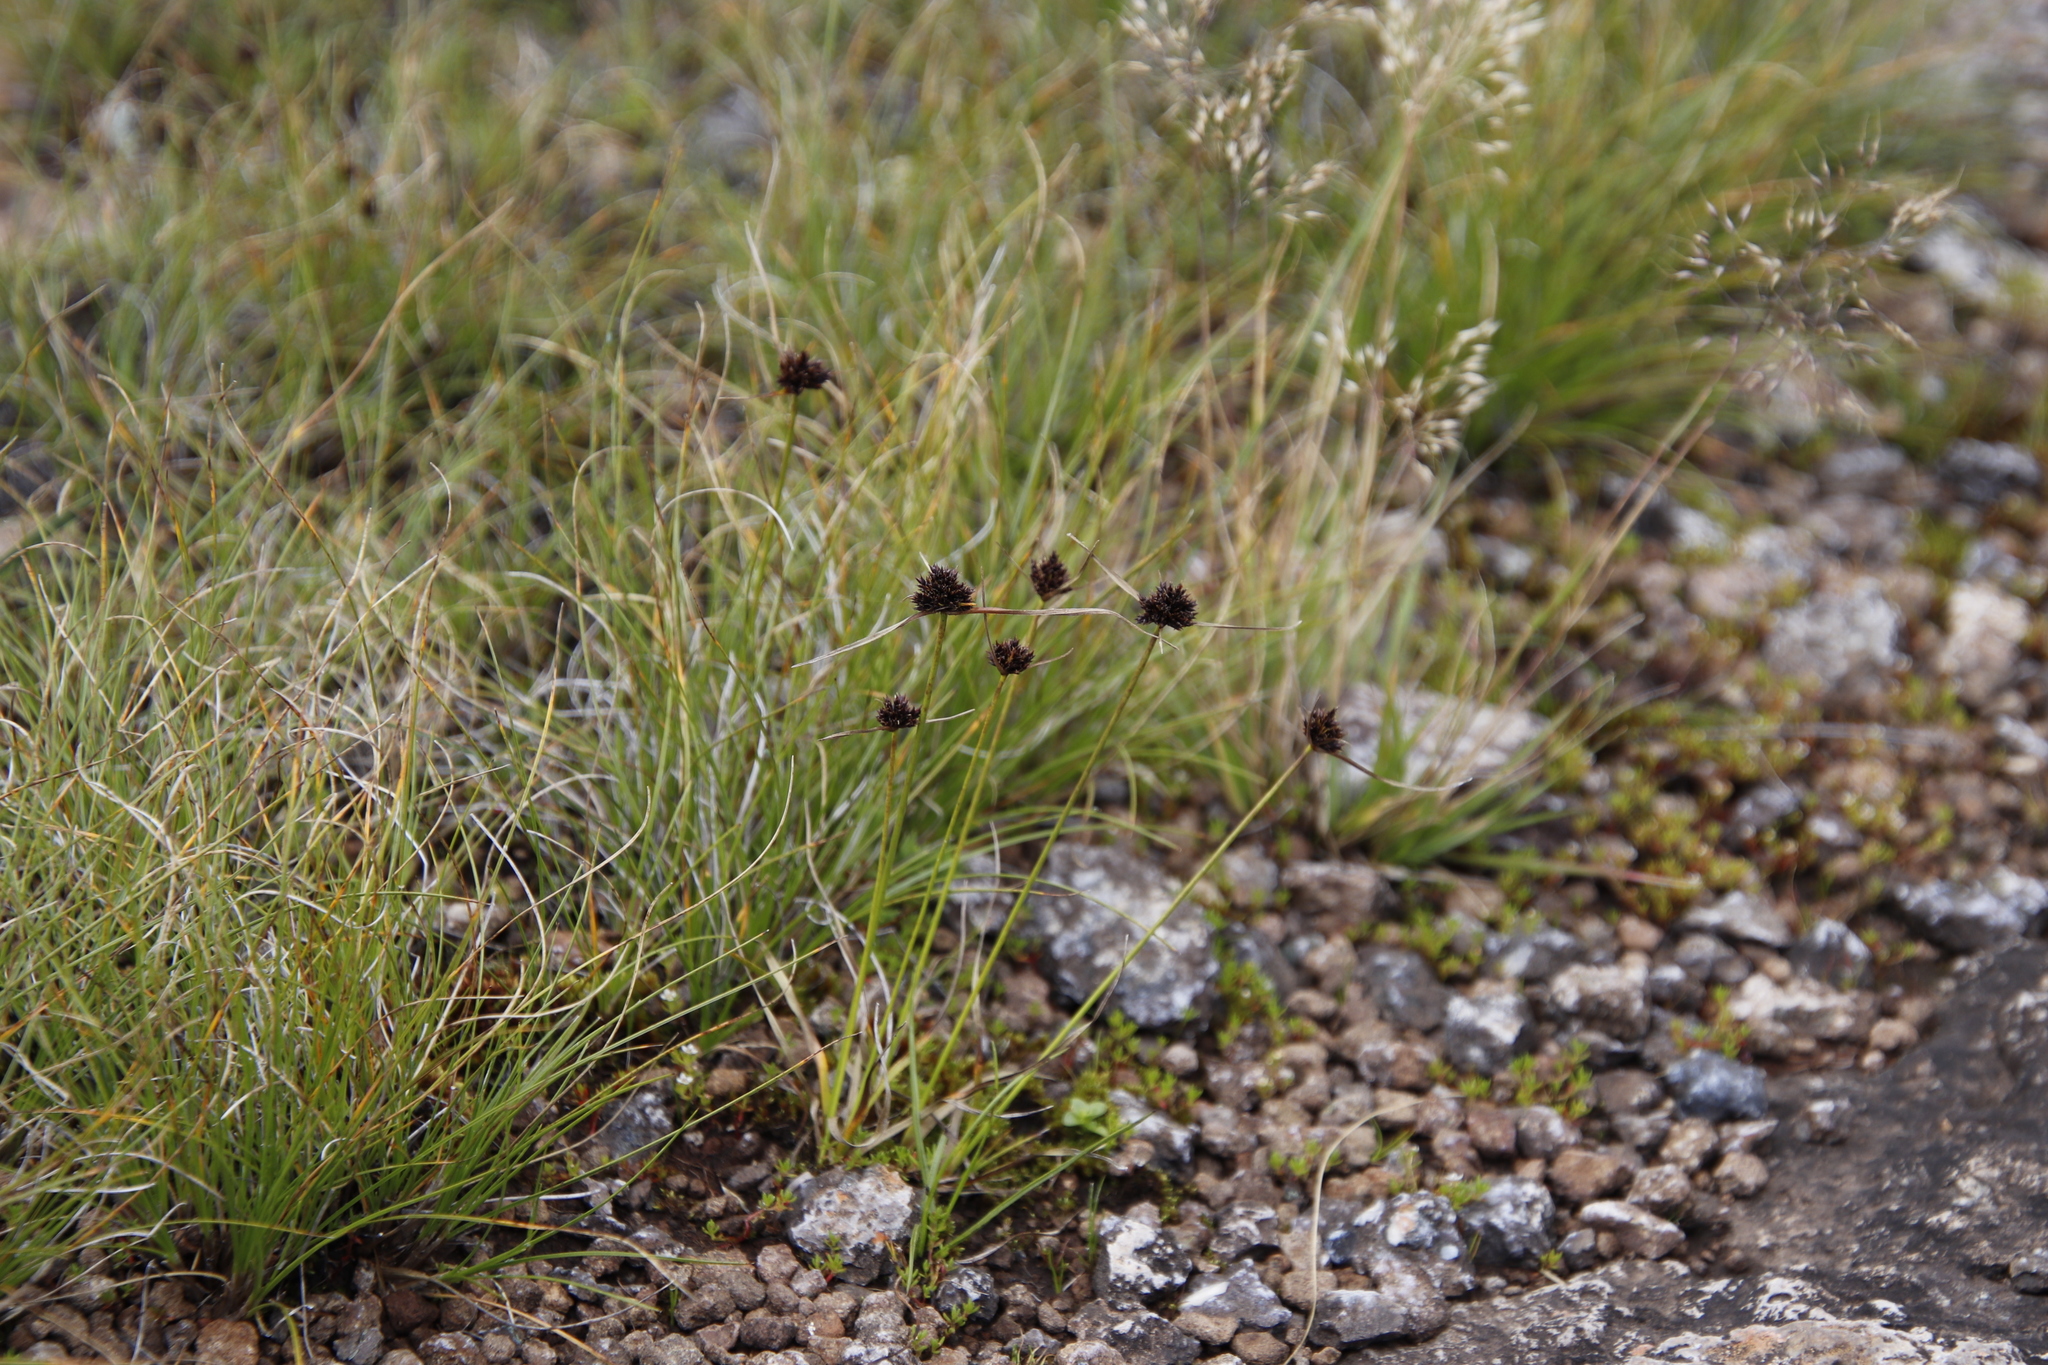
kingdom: Plantae
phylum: Tracheophyta
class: Liliopsida
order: Poales
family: Cyperaceae
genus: Cyperus
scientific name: Cyperus schlechteri
